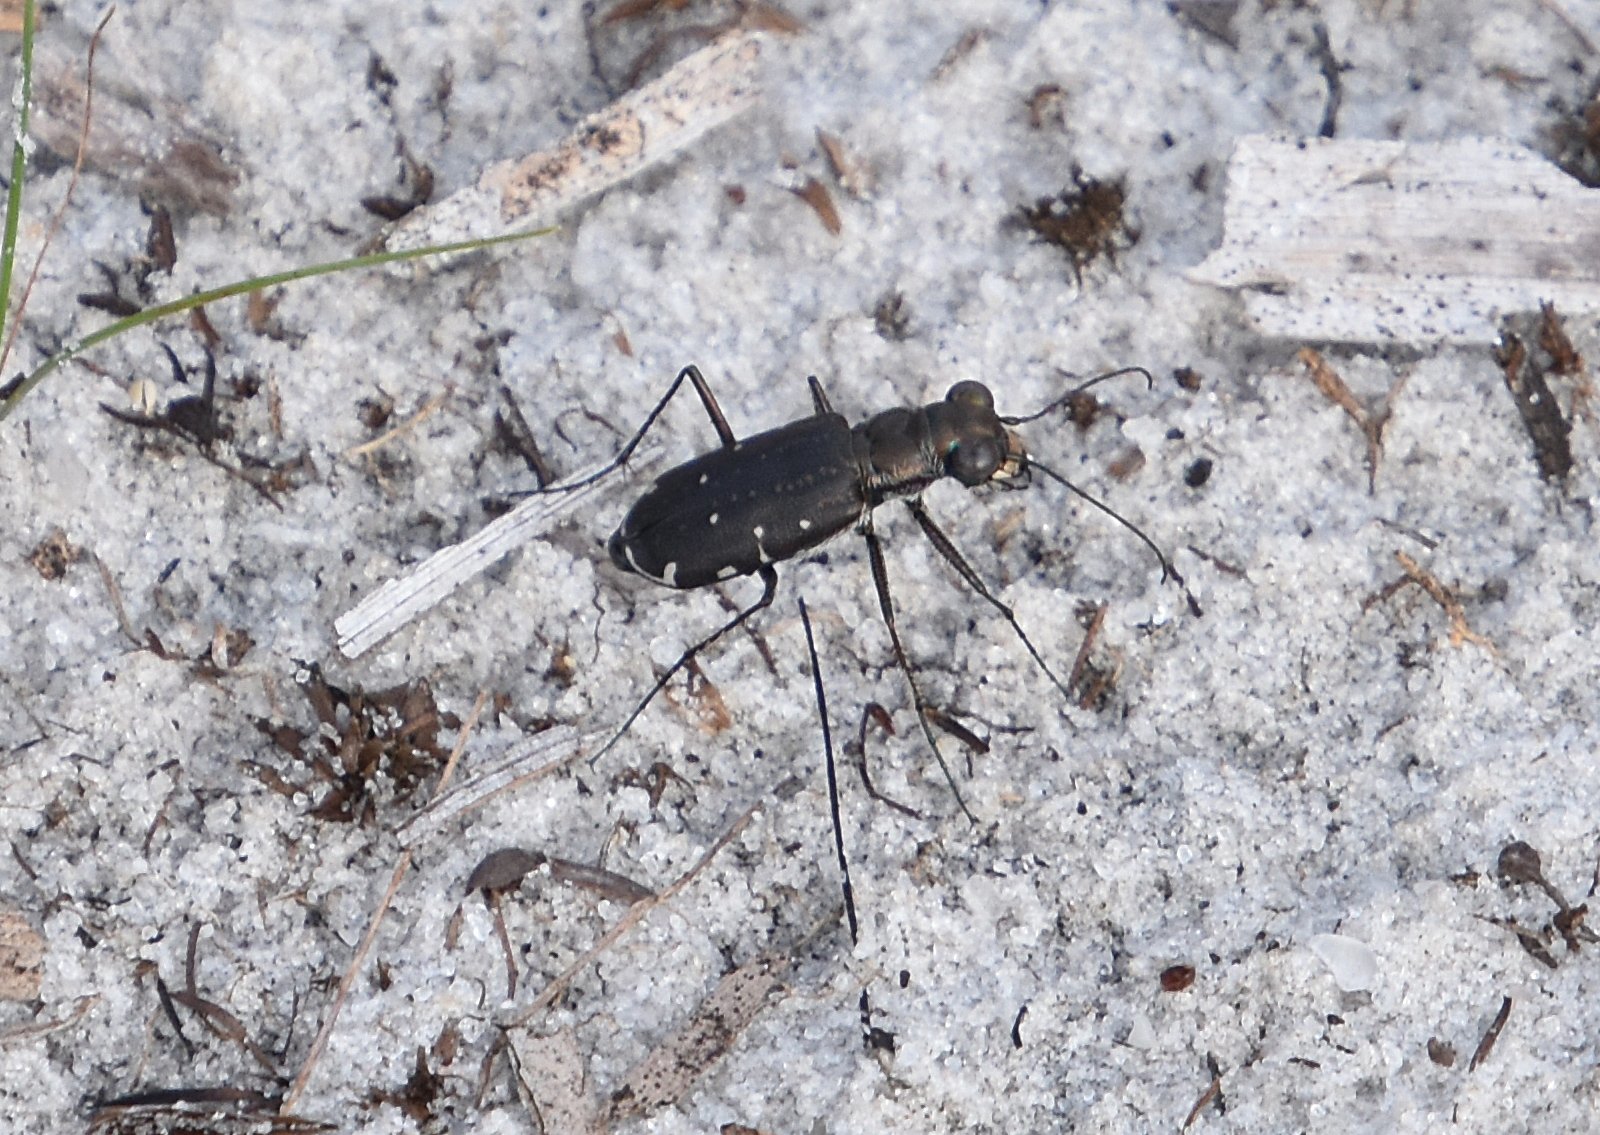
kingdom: Animalia
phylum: Arthropoda
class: Insecta
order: Coleoptera
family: Carabidae
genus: Cicindela
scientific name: Cicindela punctulata
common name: Punctured tiger beetle
